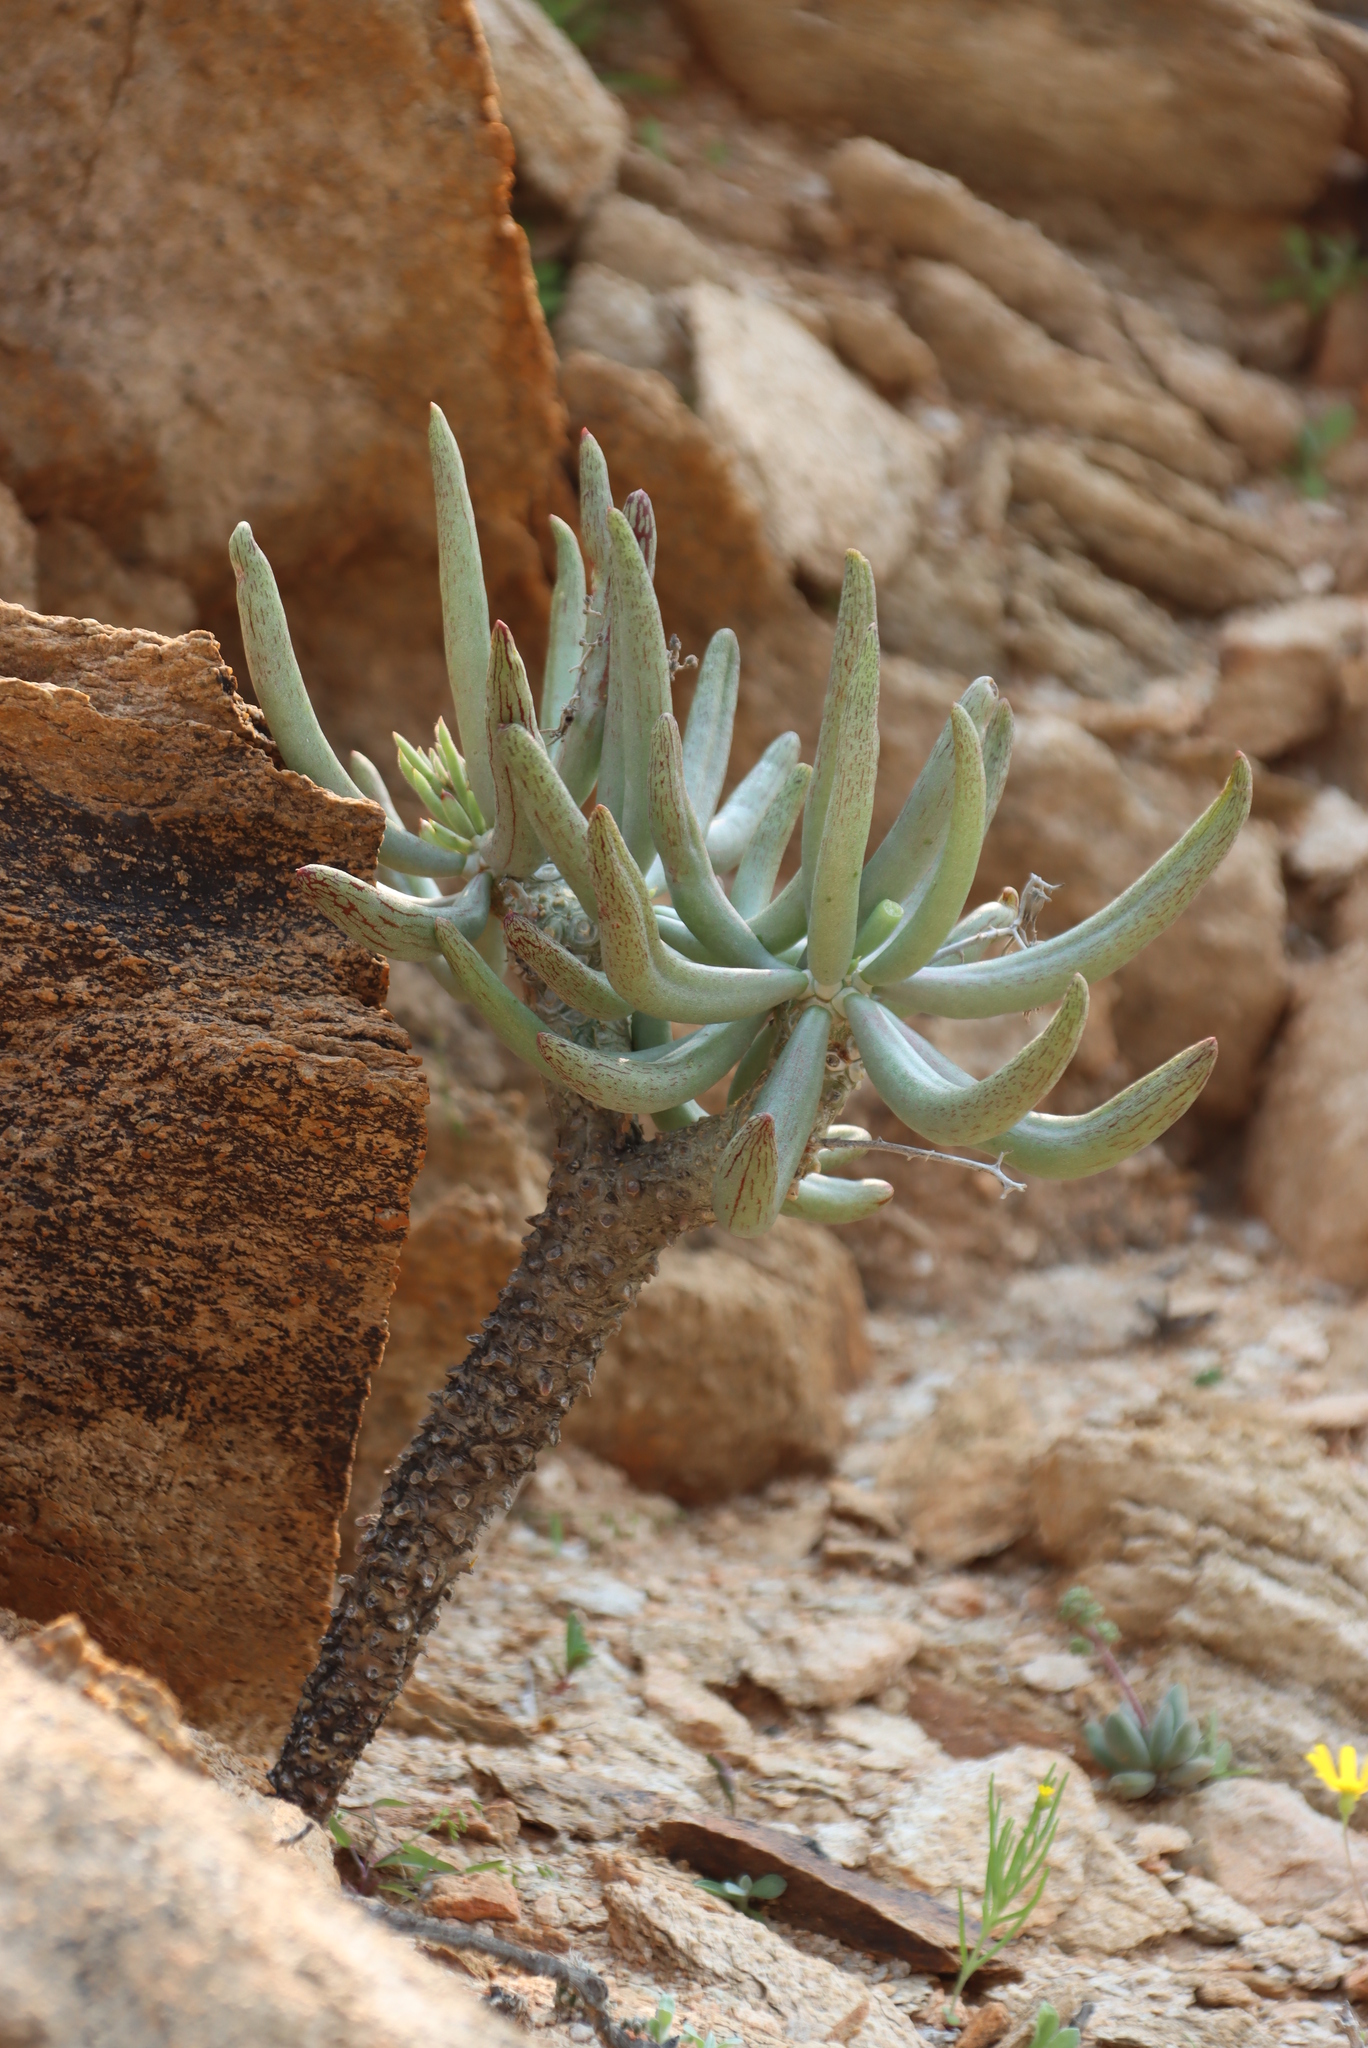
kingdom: Plantae
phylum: Tracheophyta
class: Magnoliopsida
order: Saxifragales
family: Crassulaceae
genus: Tylecodon
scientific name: Tylecodon wallichii
